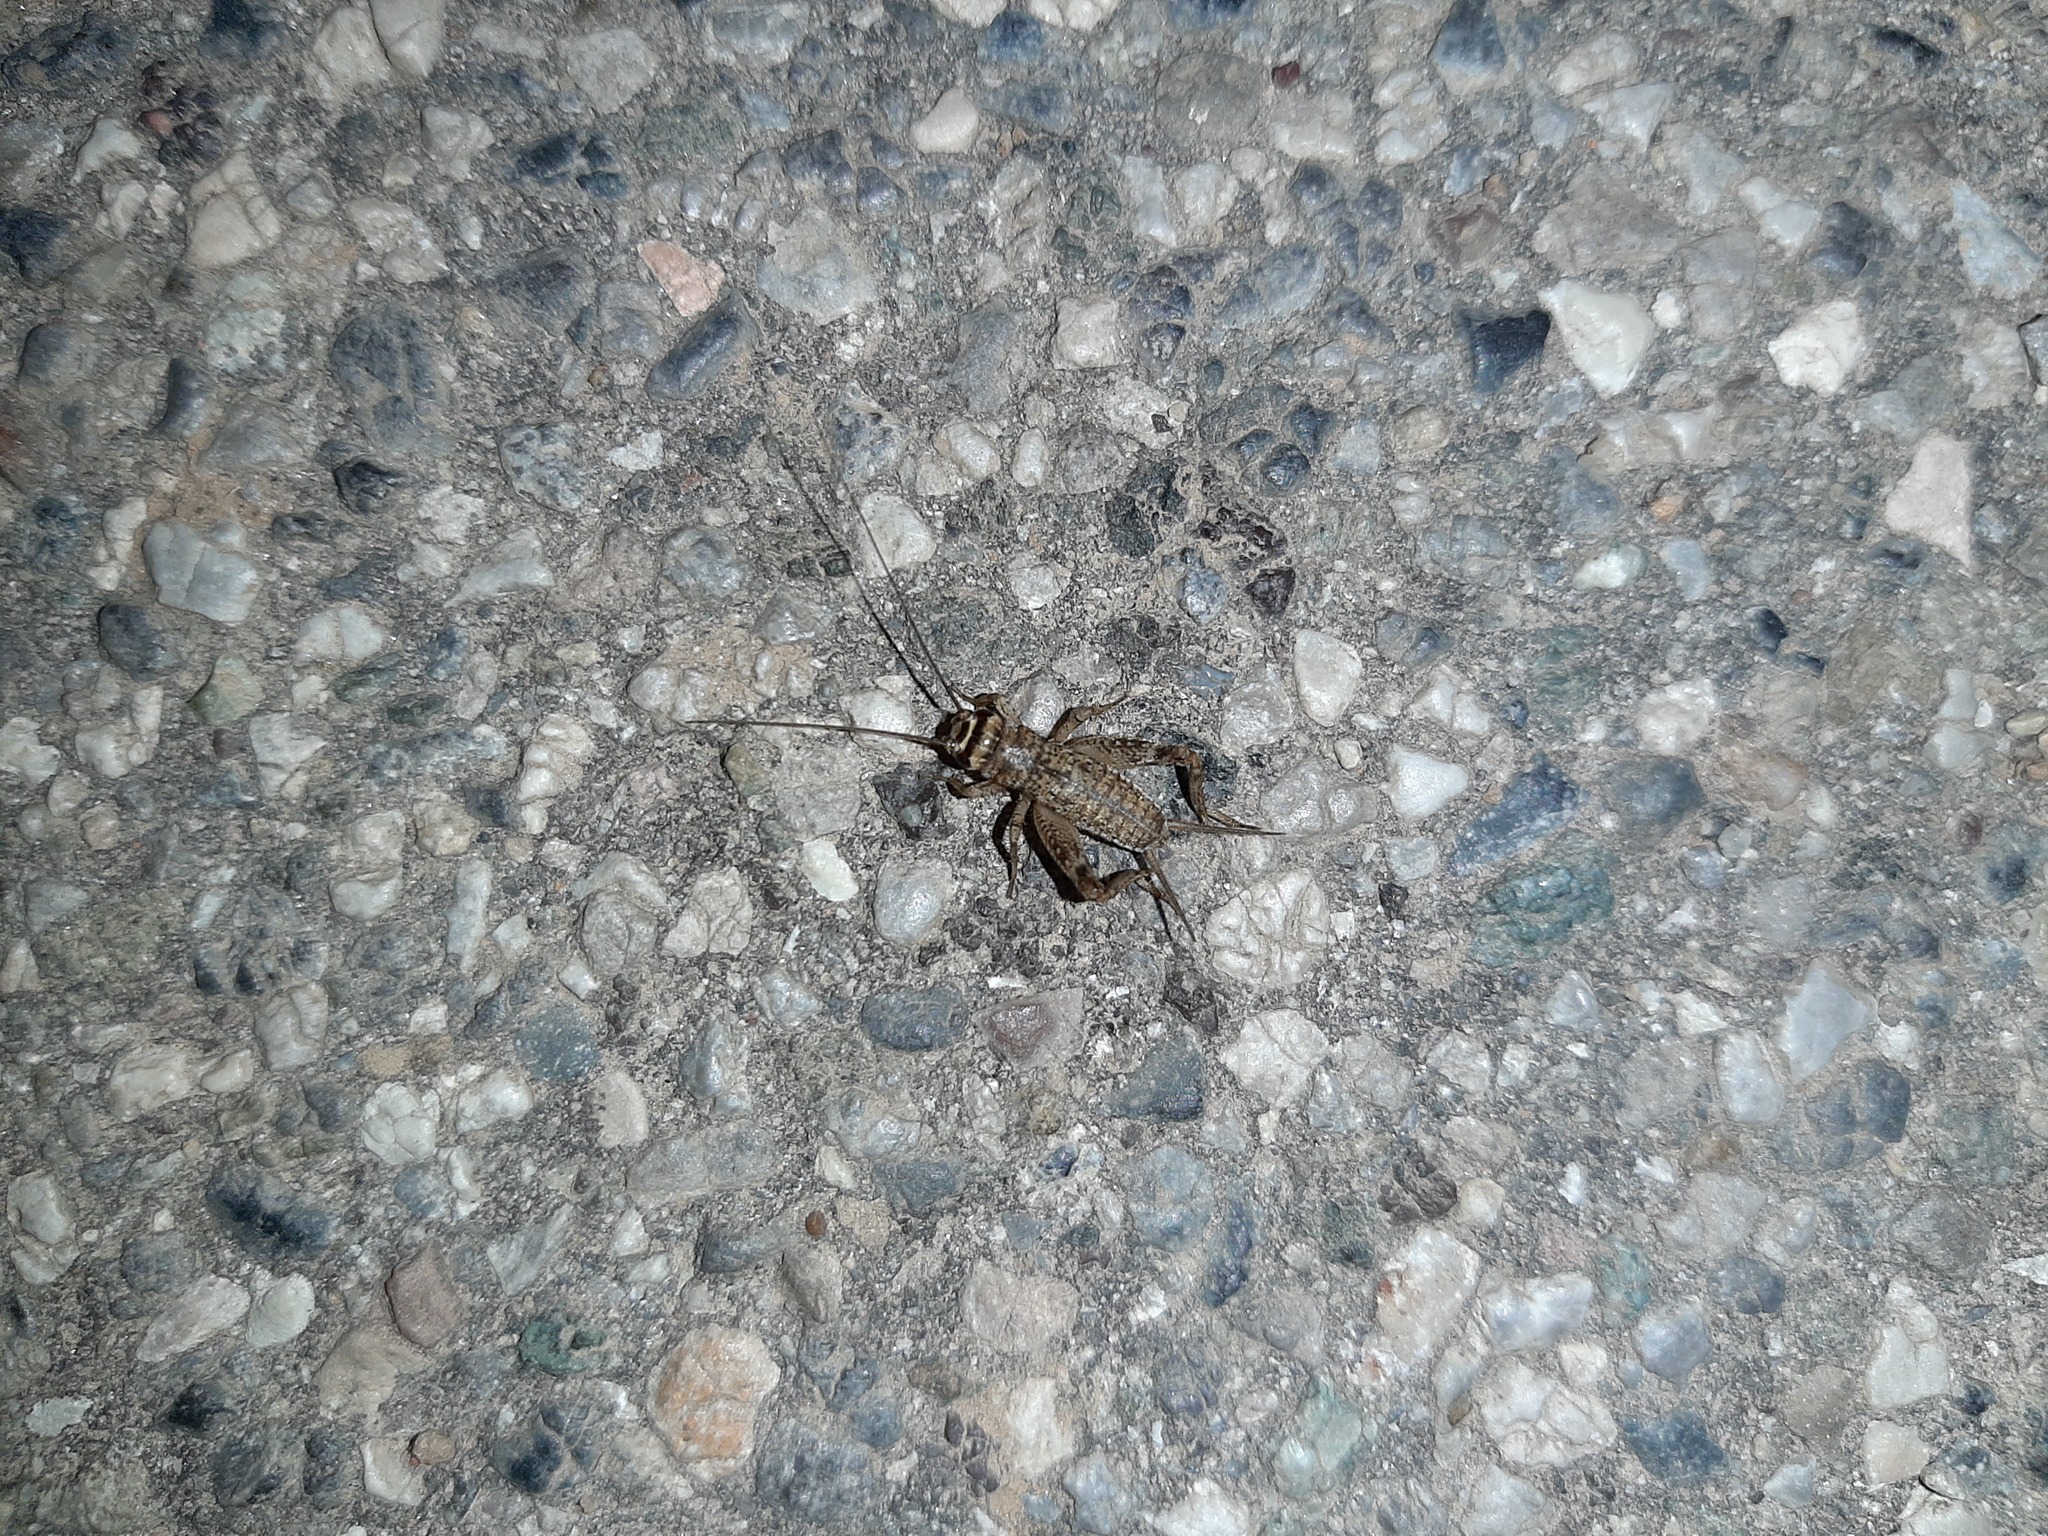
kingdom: Animalia
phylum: Arthropoda
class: Insecta
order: Orthoptera
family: Gryllidae
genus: Eumodicogryllus
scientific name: Eumodicogryllus bordigalensis
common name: Bordeaux cricket
